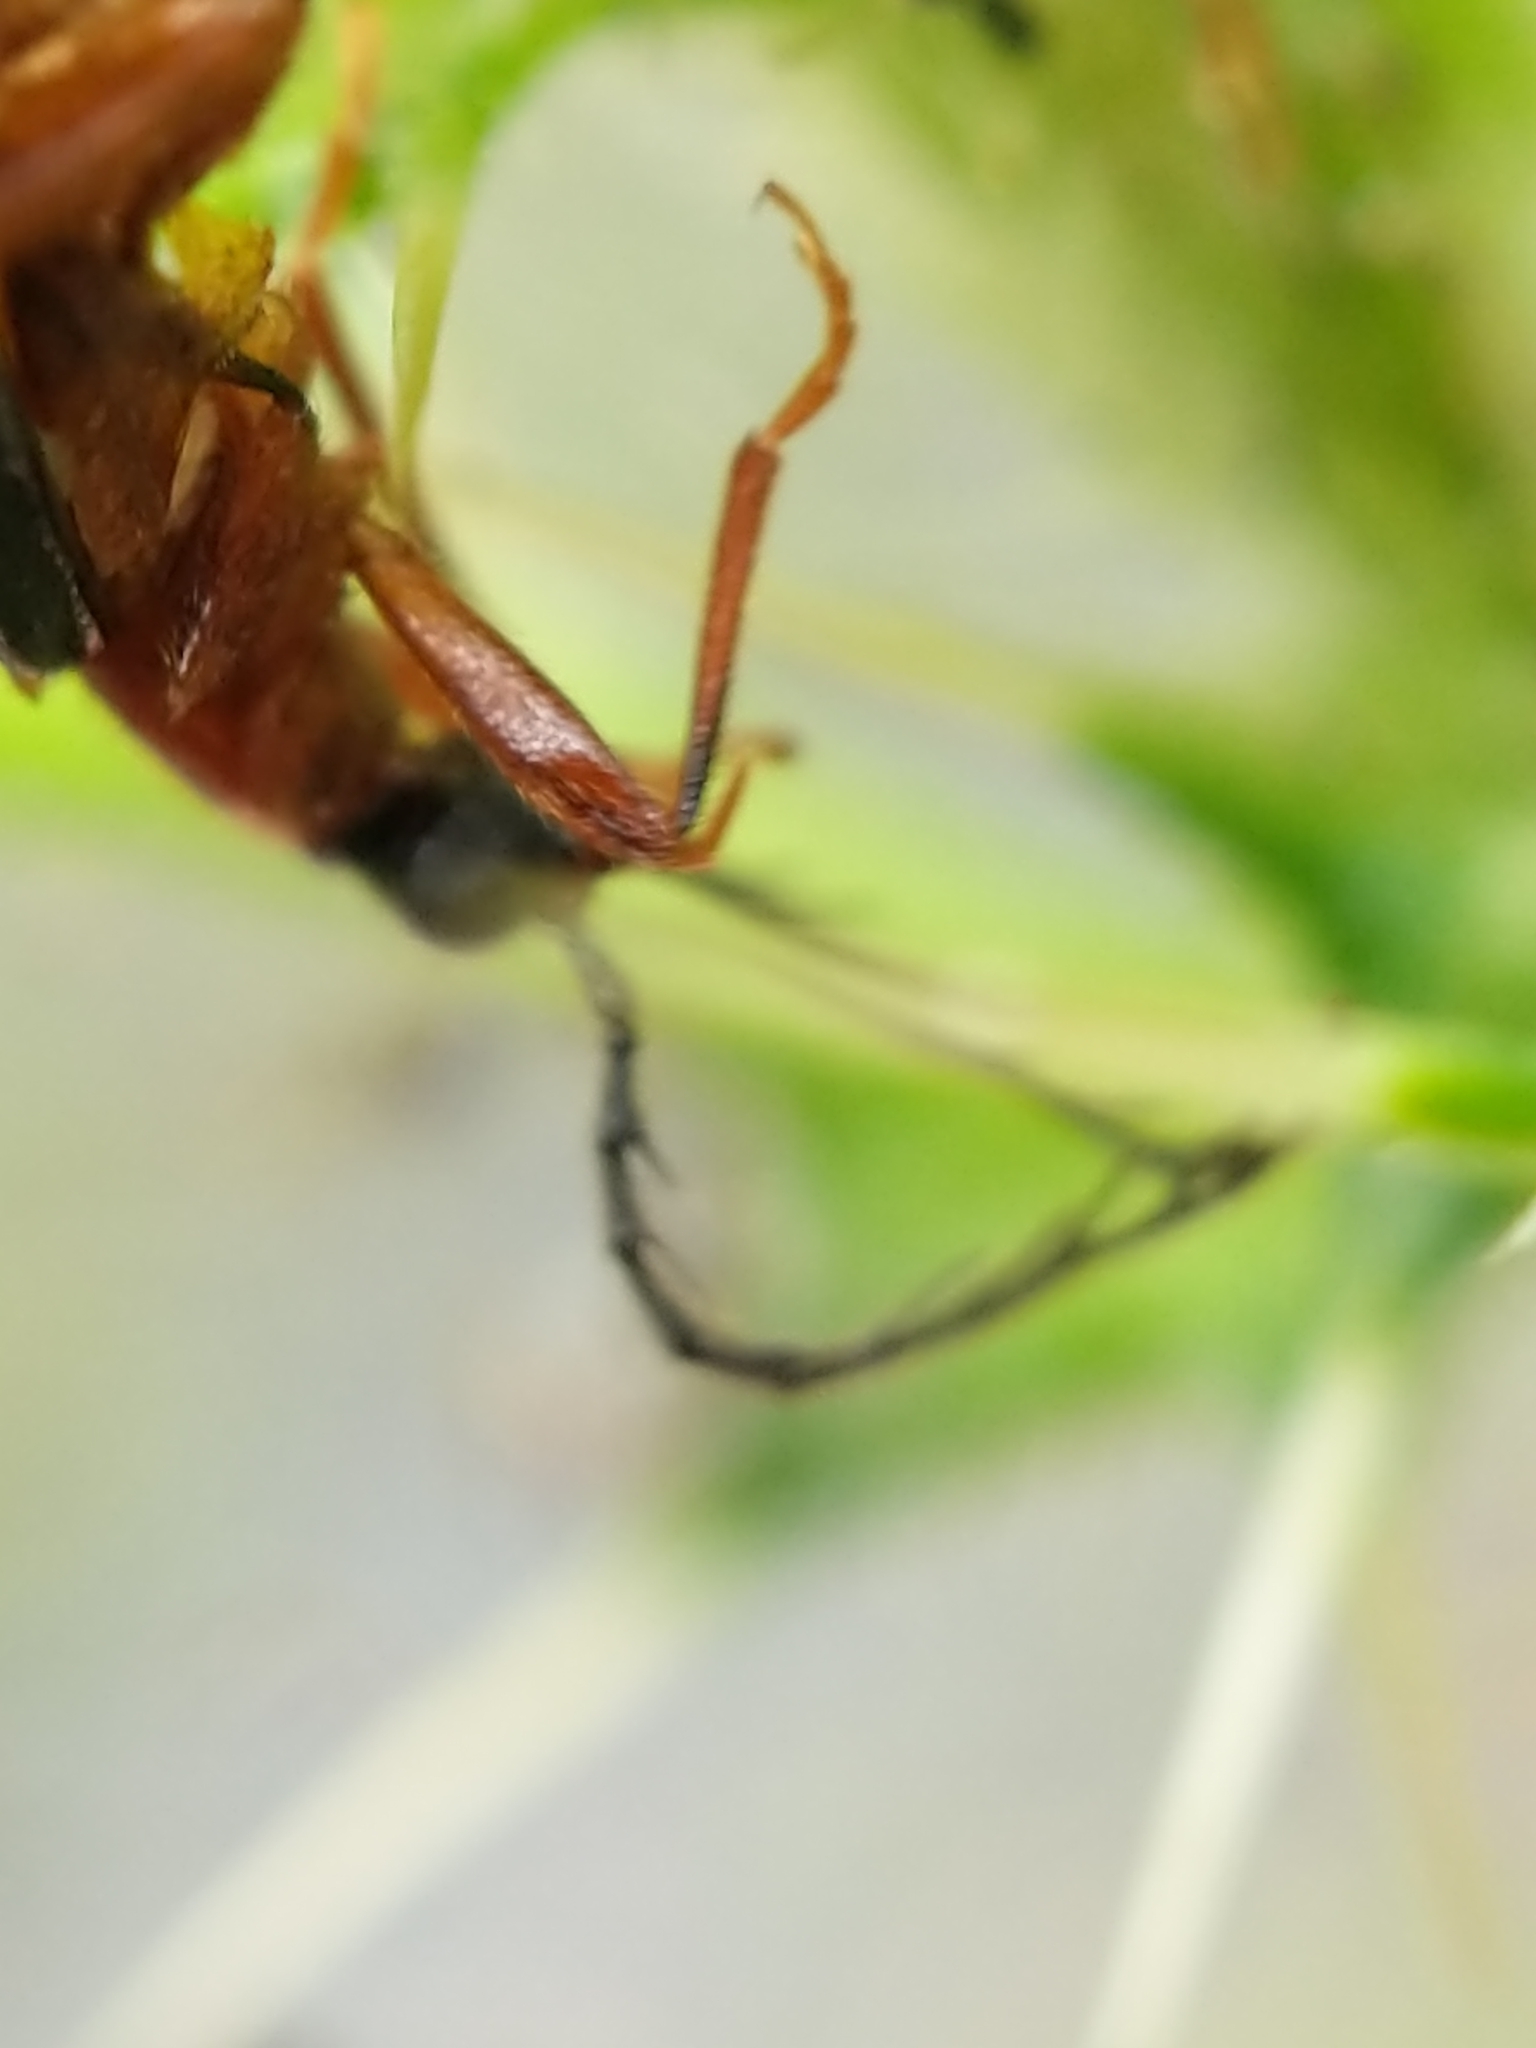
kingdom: Animalia
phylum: Arthropoda
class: Insecta
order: Coleoptera
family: Pyrochroidae
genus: Dendroides
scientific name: Dendroides canadensis
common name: Canada fire-colored beetle
